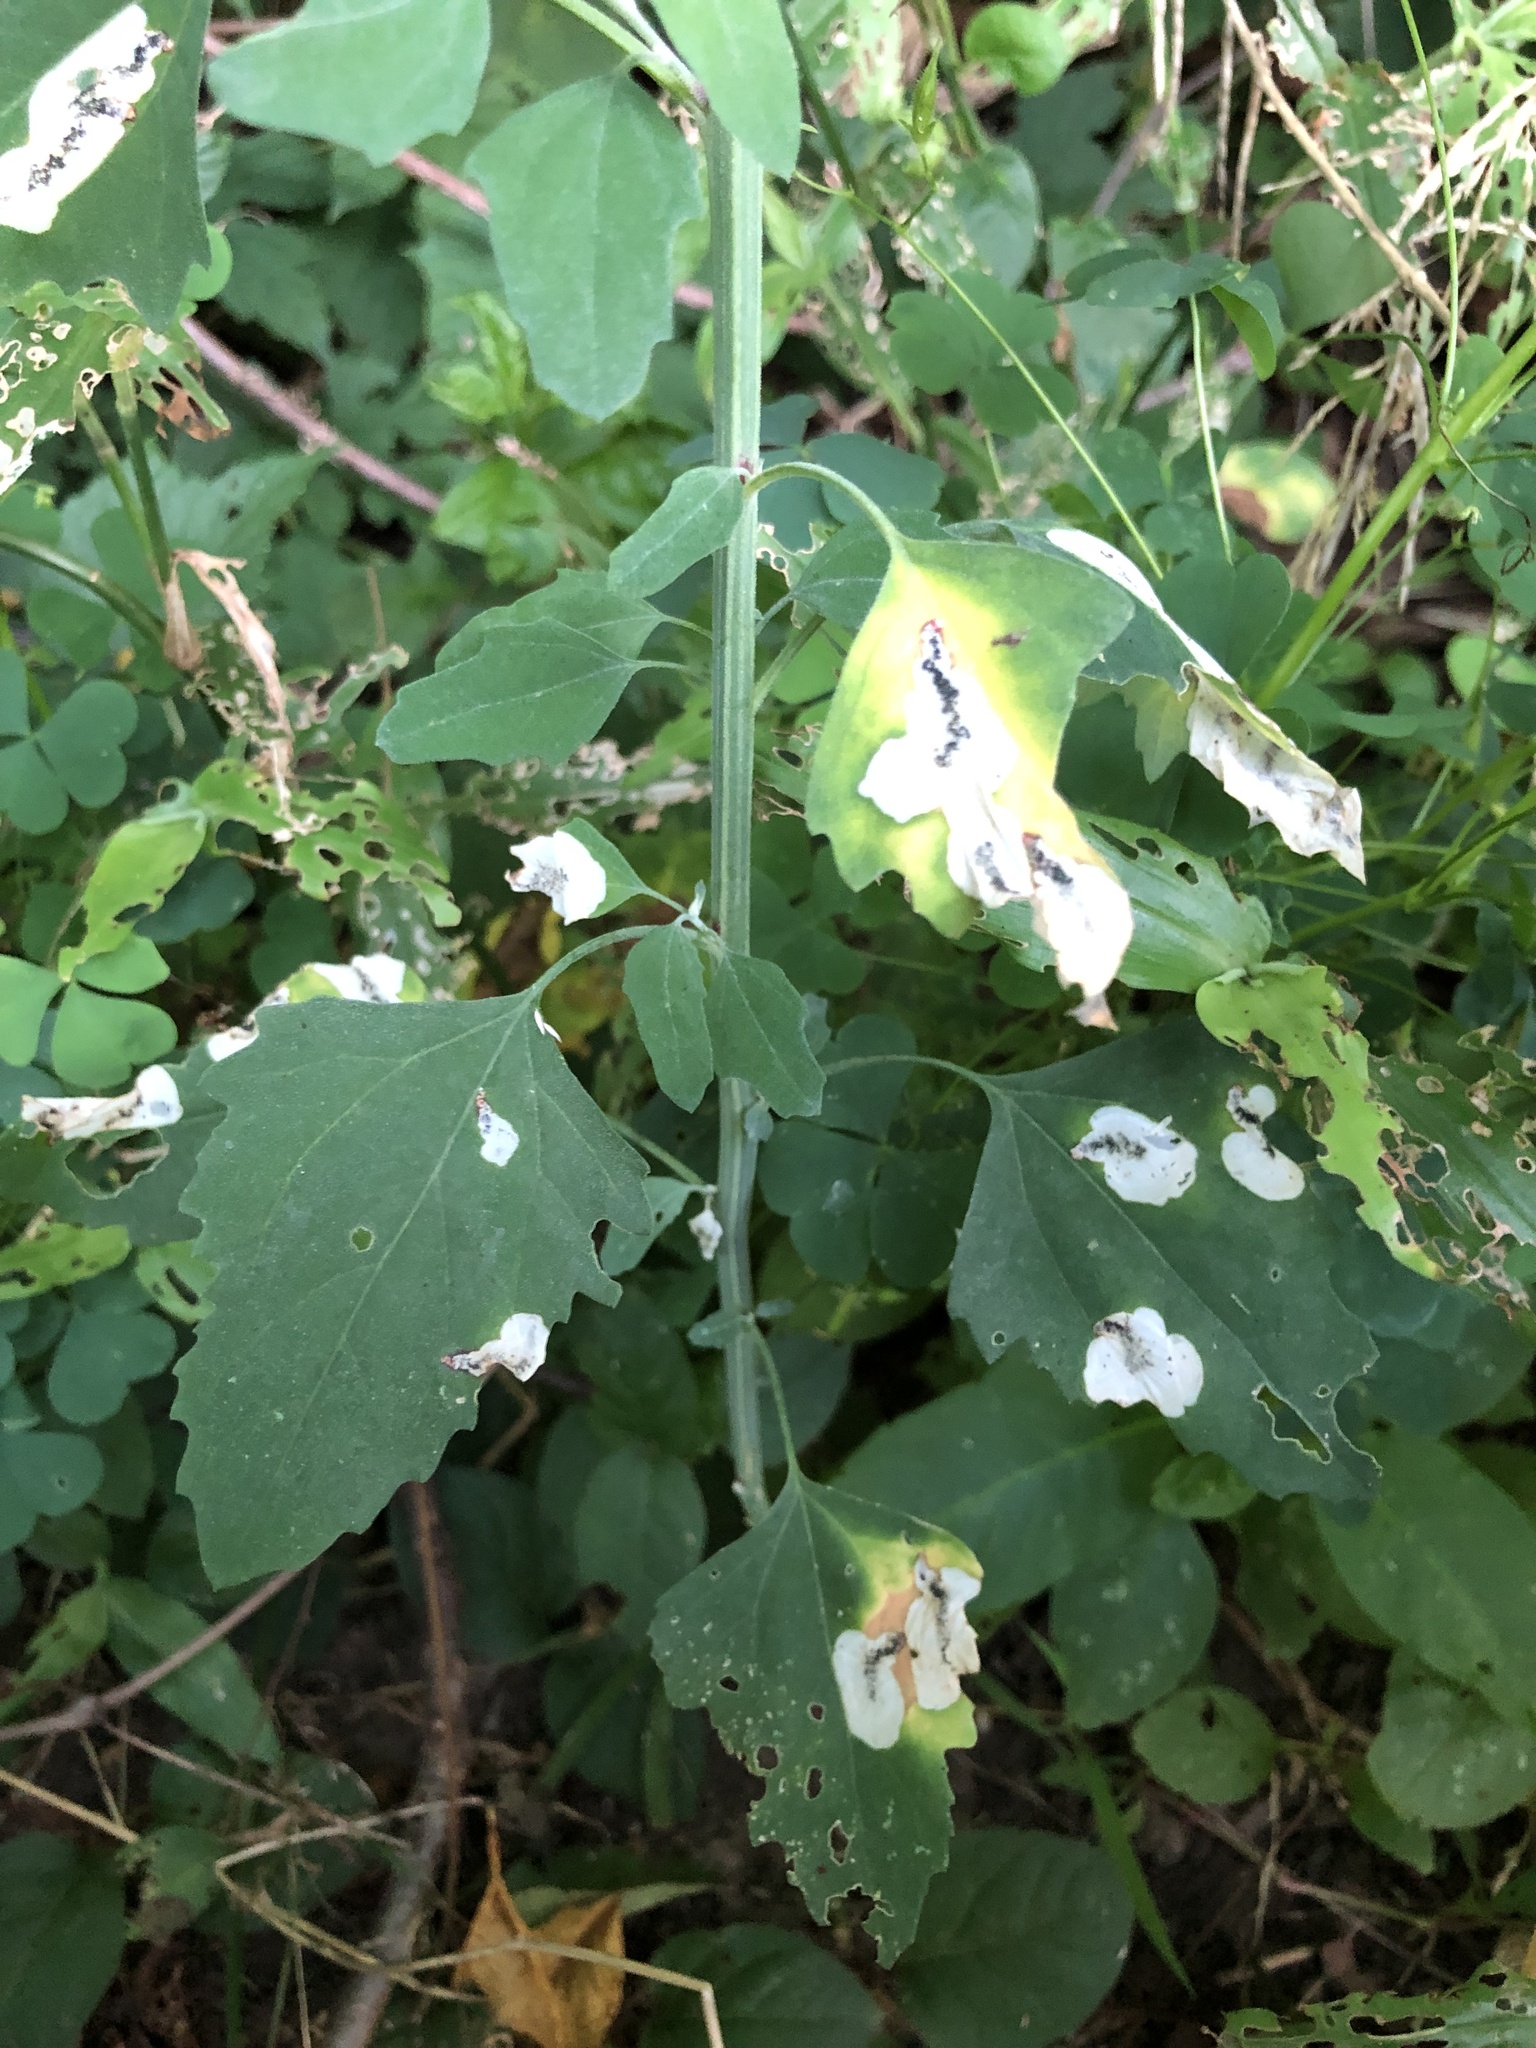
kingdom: Animalia
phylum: Arthropoda
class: Insecta
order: Lepidoptera
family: Gelechiidae
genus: Chrysoesthia
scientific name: Chrysoesthia sexguttella
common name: Moth
